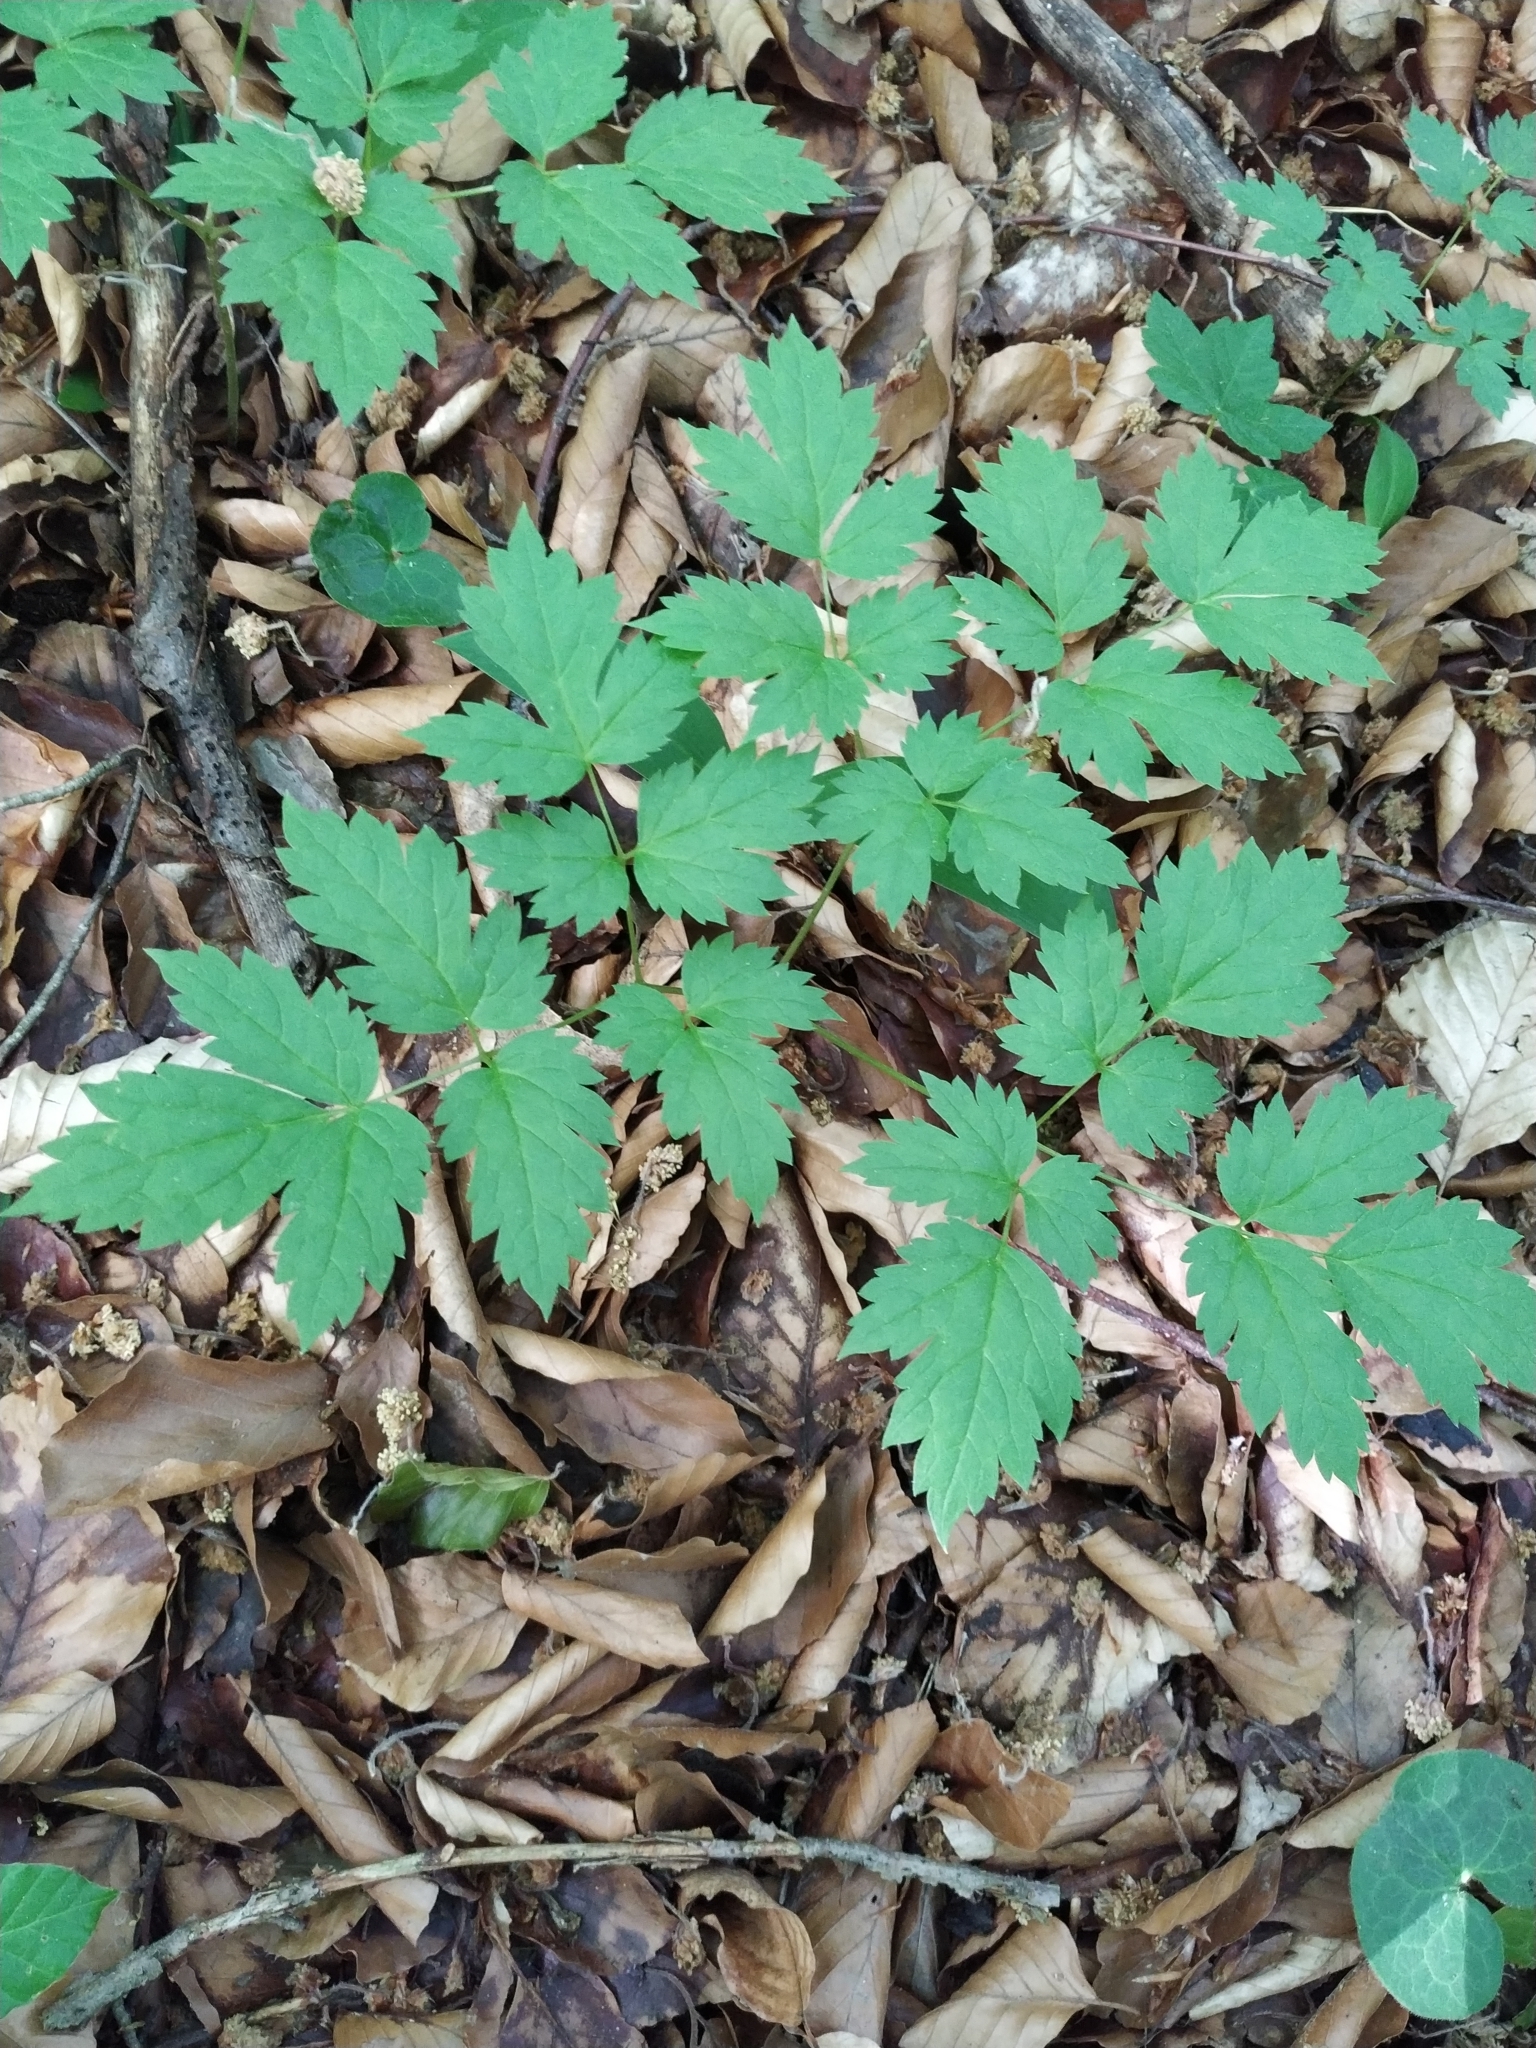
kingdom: Plantae
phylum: Tracheophyta
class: Magnoliopsida
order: Ranunculales
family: Ranunculaceae
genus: Actaea
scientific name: Actaea spicata
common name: Baneberry
